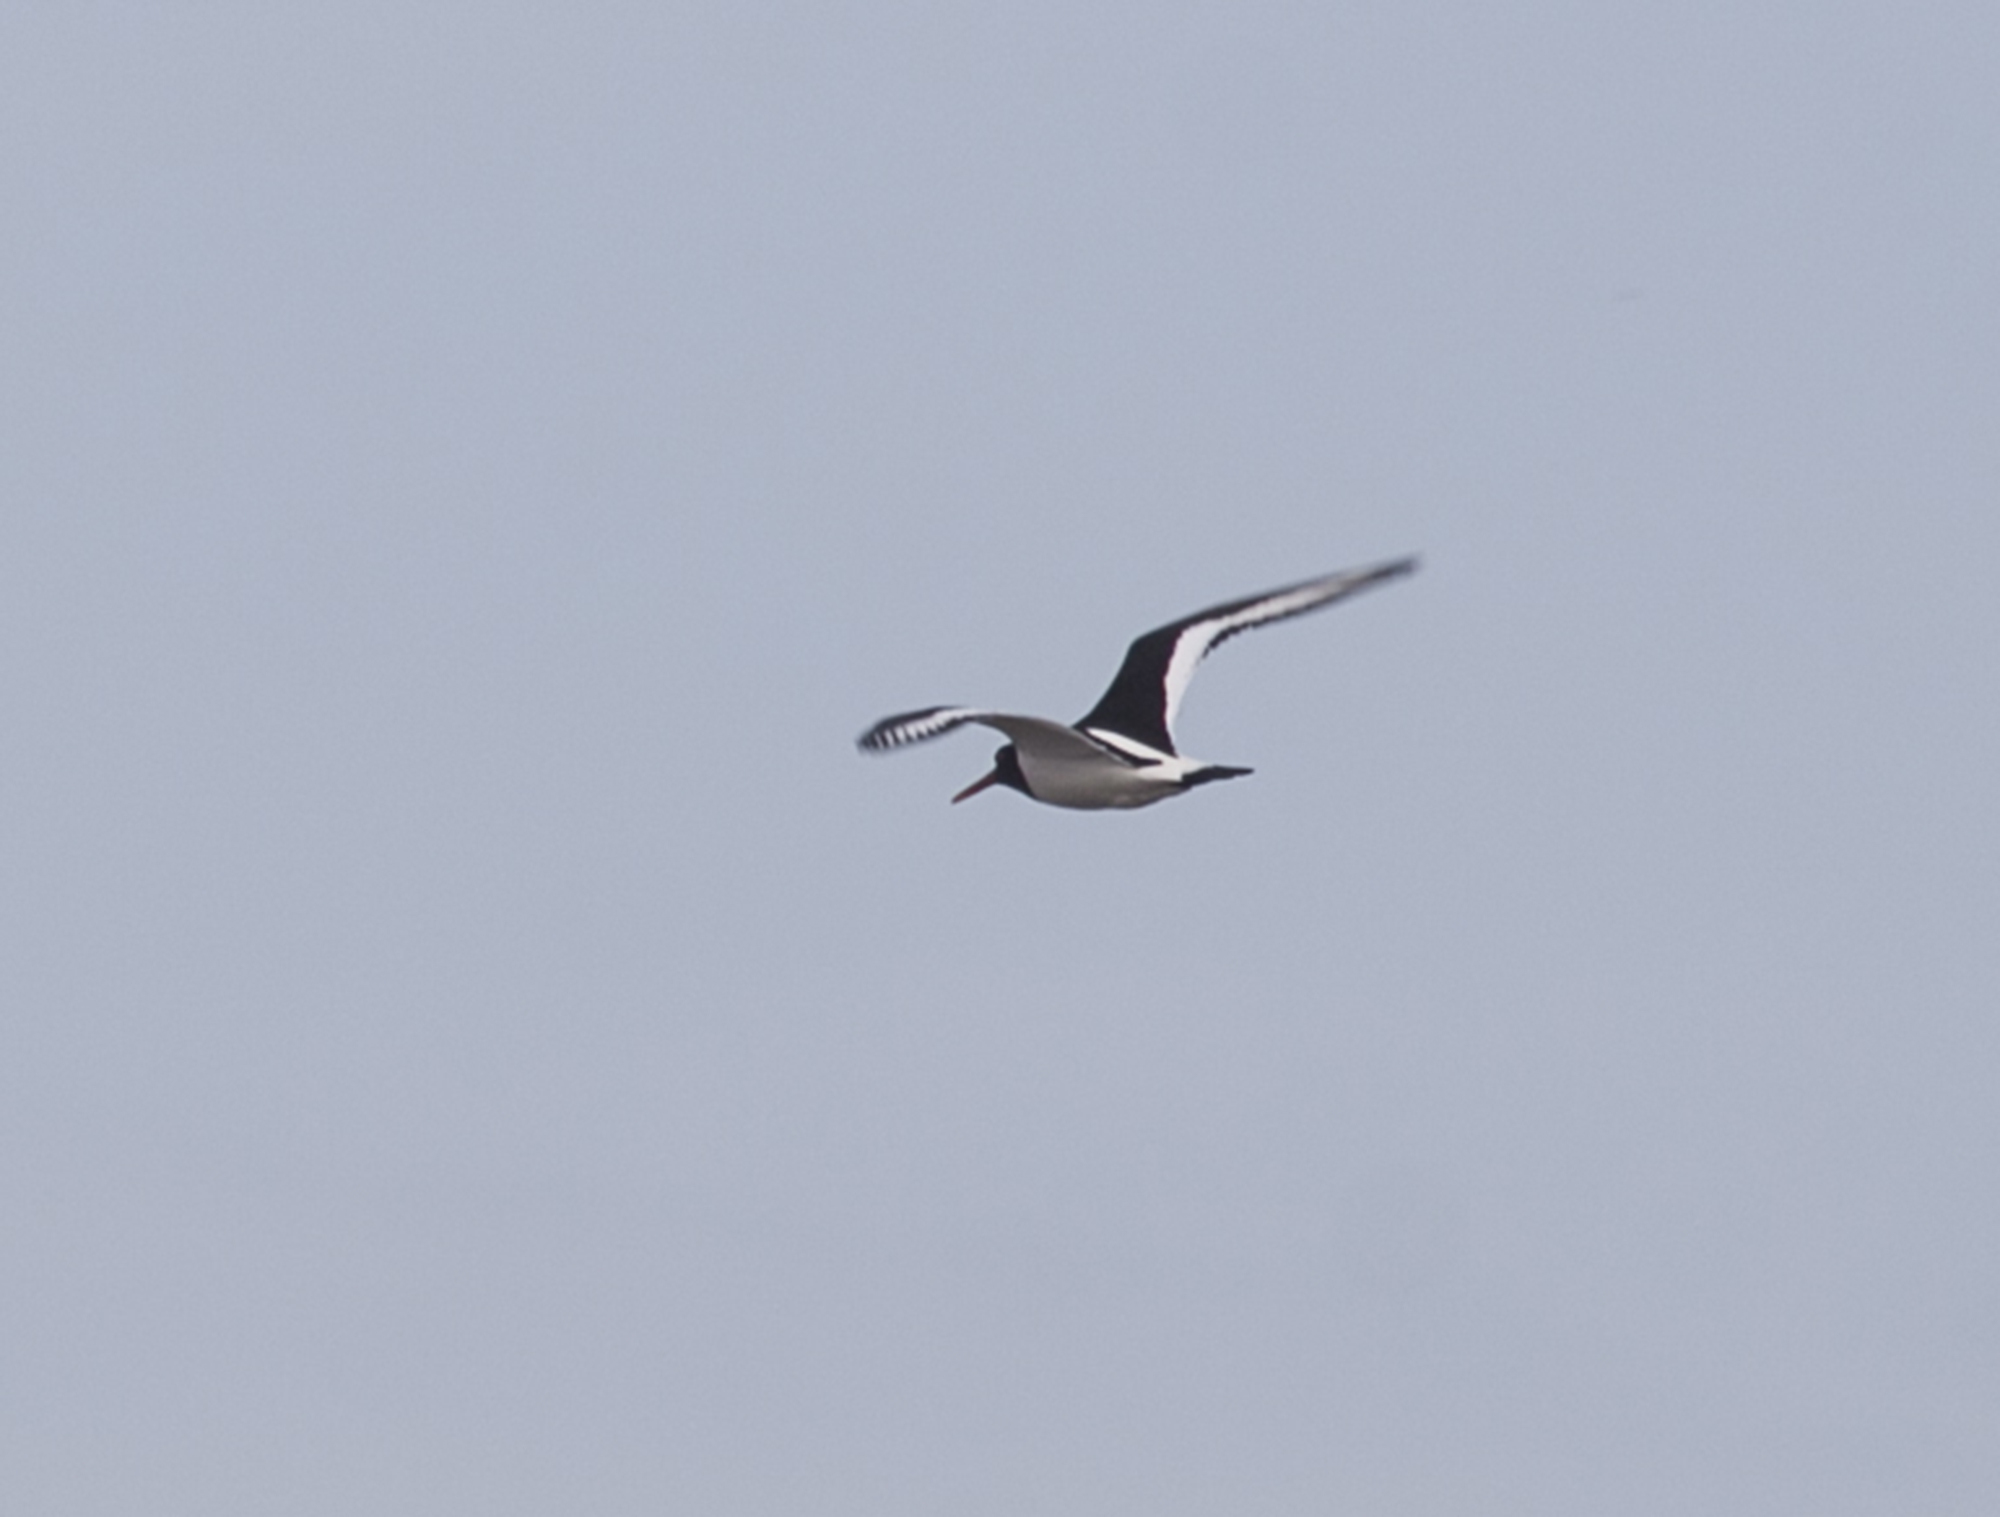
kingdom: Animalia
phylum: Chordata
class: Aves
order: Charadriiformes
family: Haematopodidae
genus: Haematopus
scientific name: Haematopus ostralegus
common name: Eurasian oystercatcher
